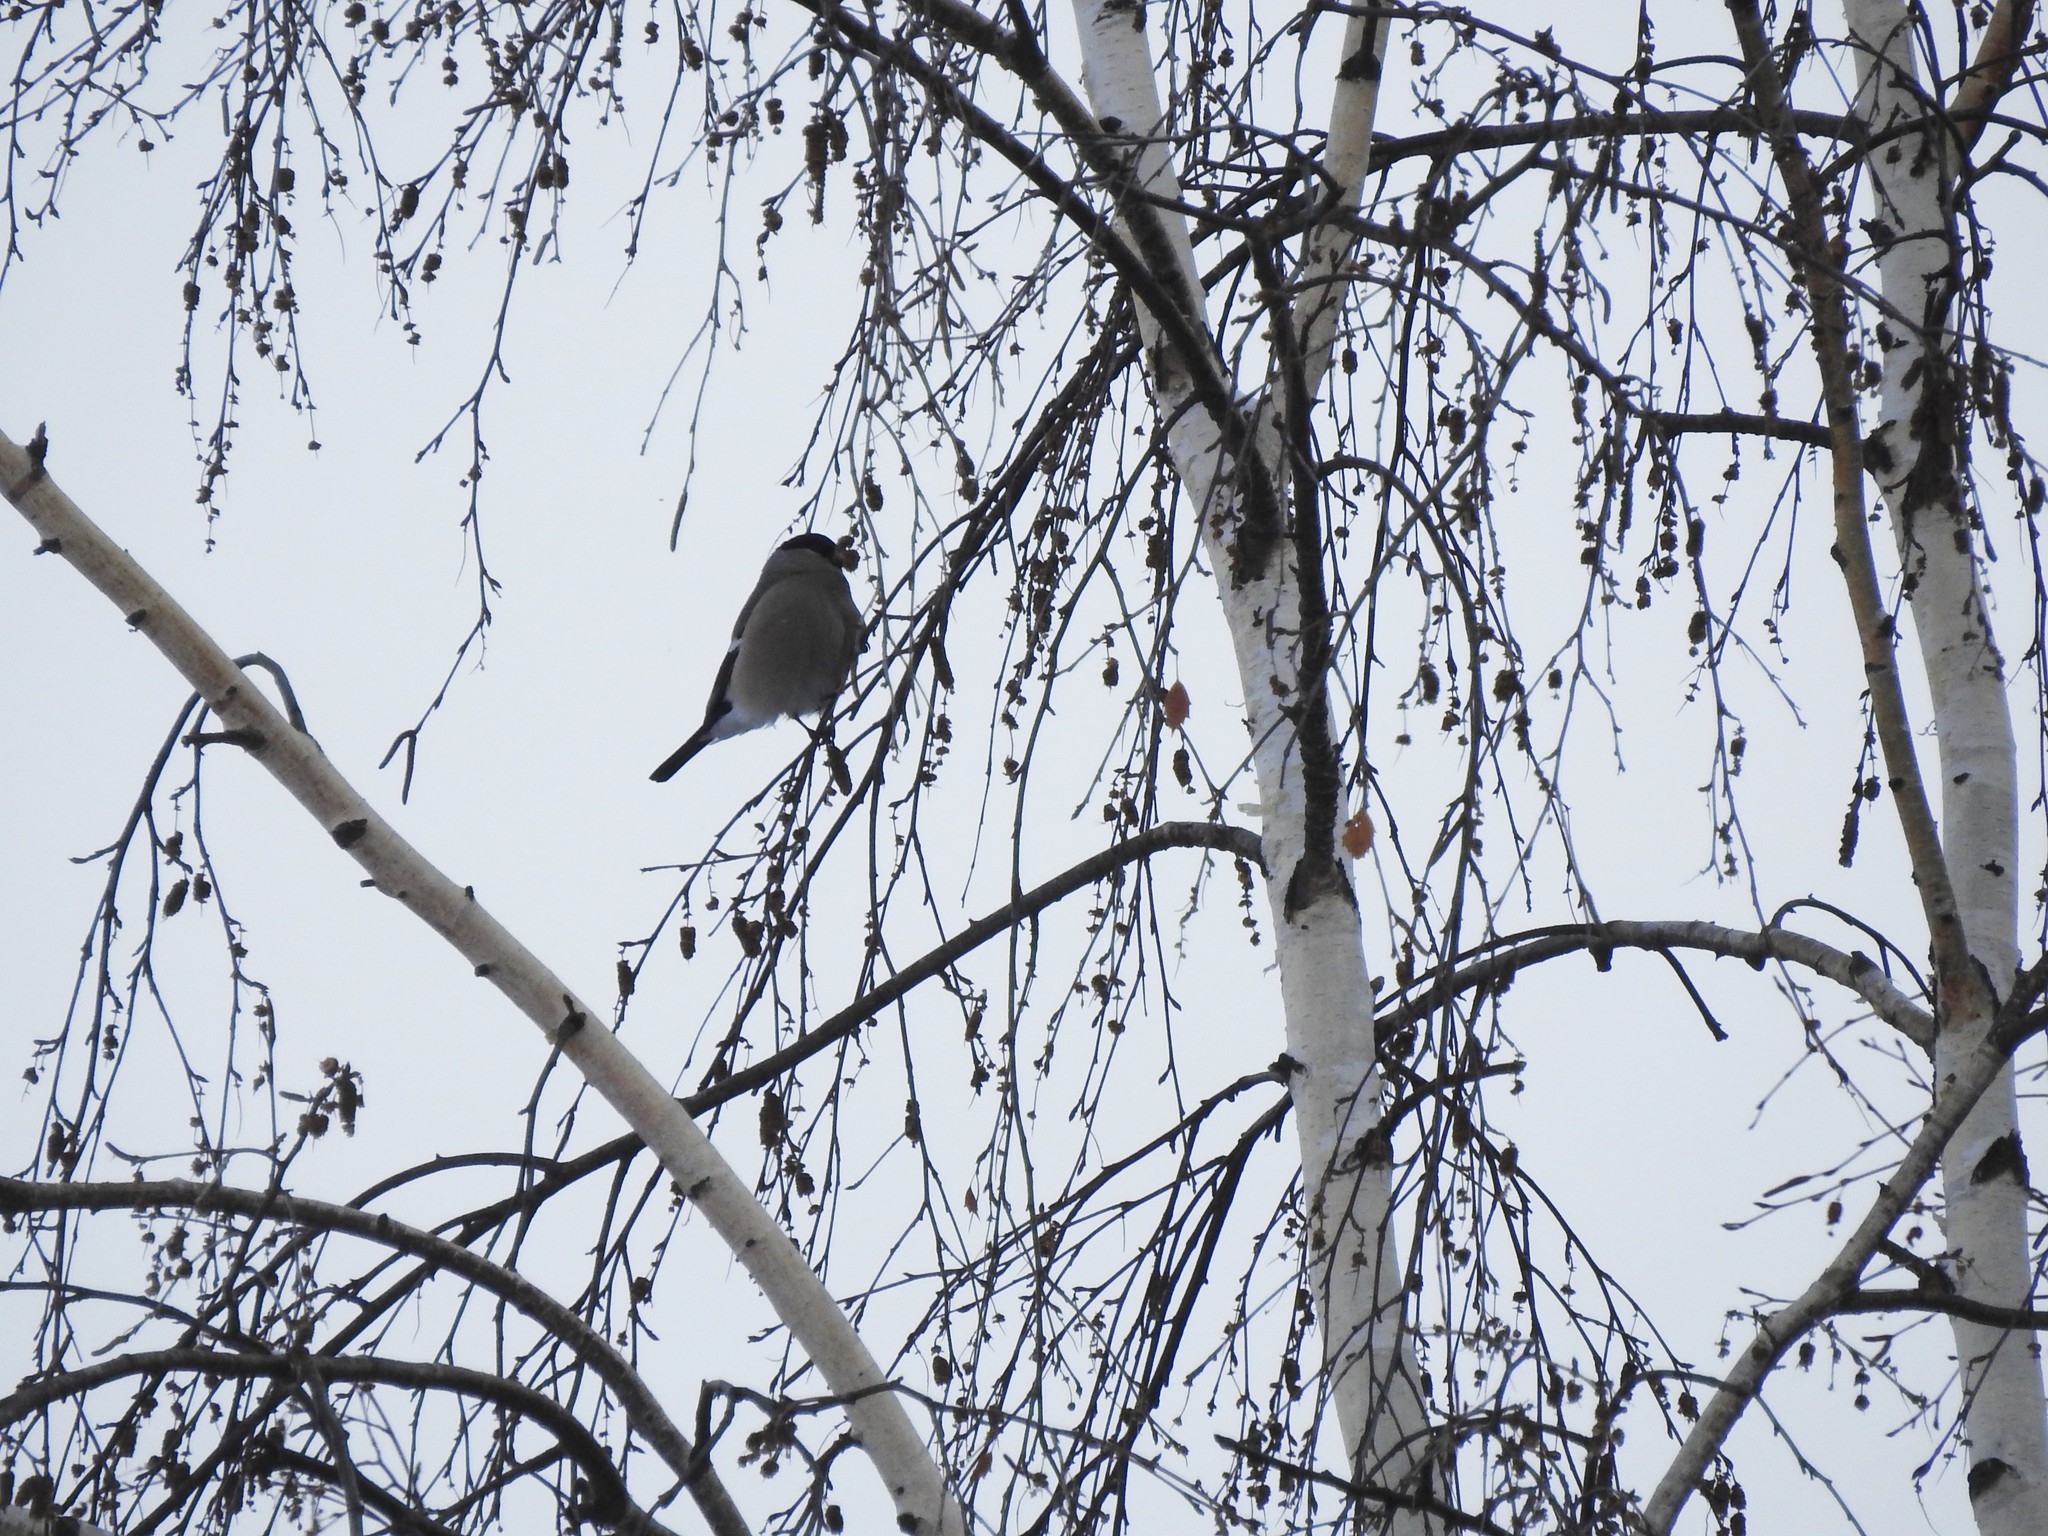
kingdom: Animalia
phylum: Chordata
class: Aves
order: Passeriformes
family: Fringillidae
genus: Pyrrhula
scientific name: Pyrrhula pyrrhula
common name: Eurasian bullfinch
